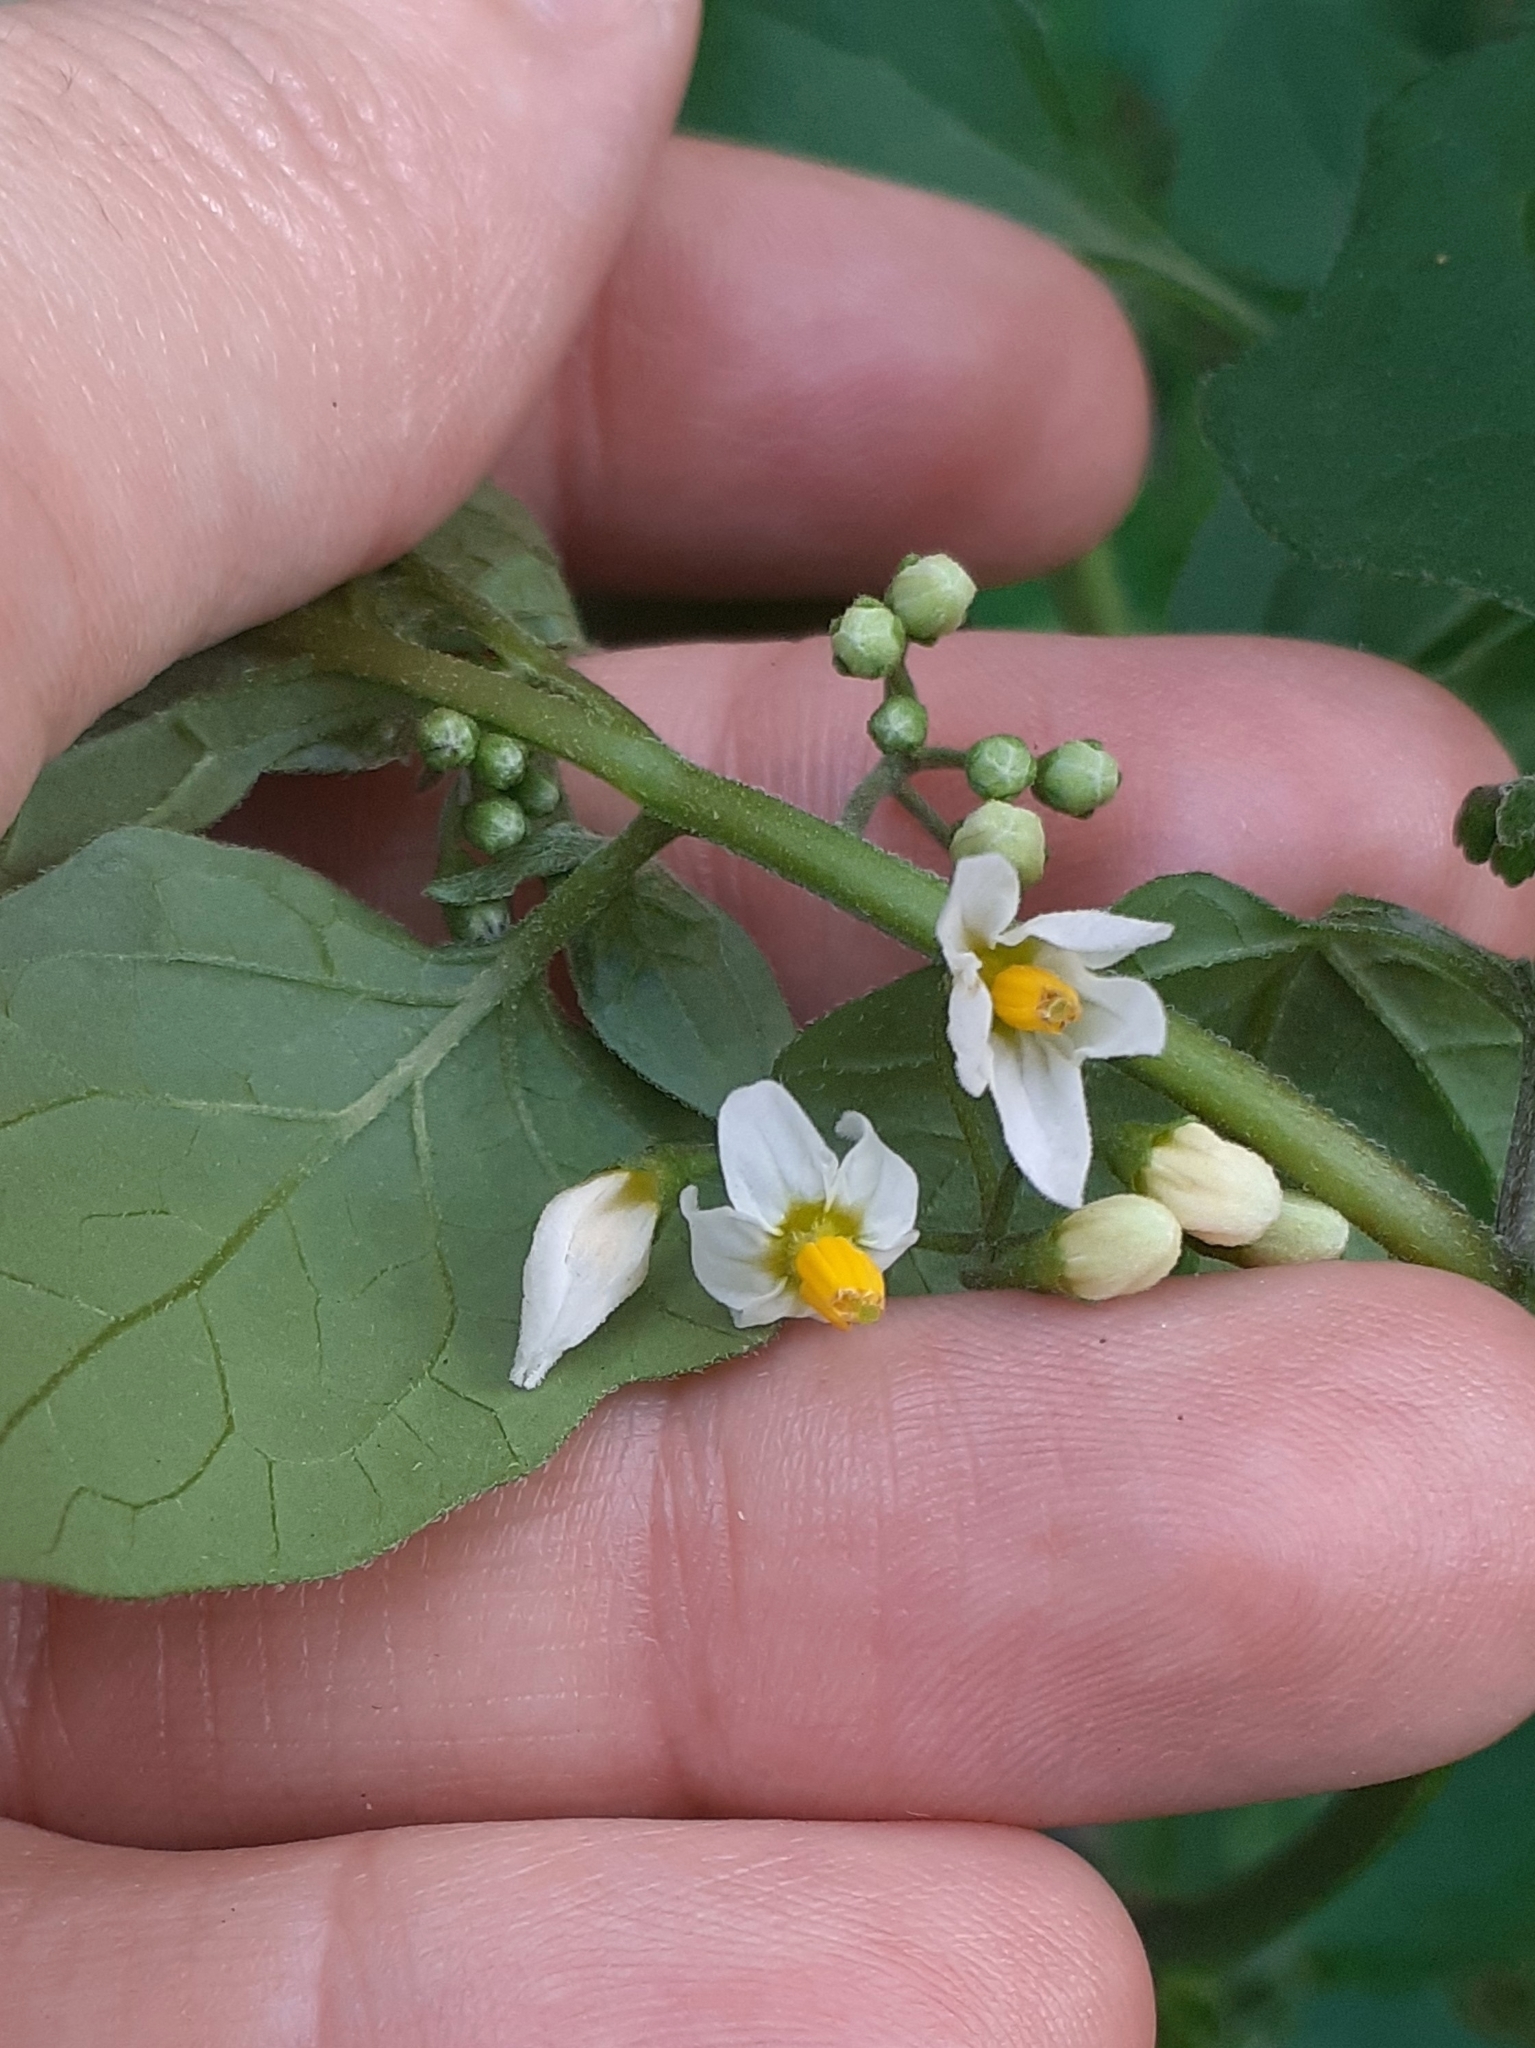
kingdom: Plantae
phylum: Tracheophyta
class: Magnoliopsida
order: Solanales
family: Solanaceae
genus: Solanum
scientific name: Solanum nigrum
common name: Black nightshade
